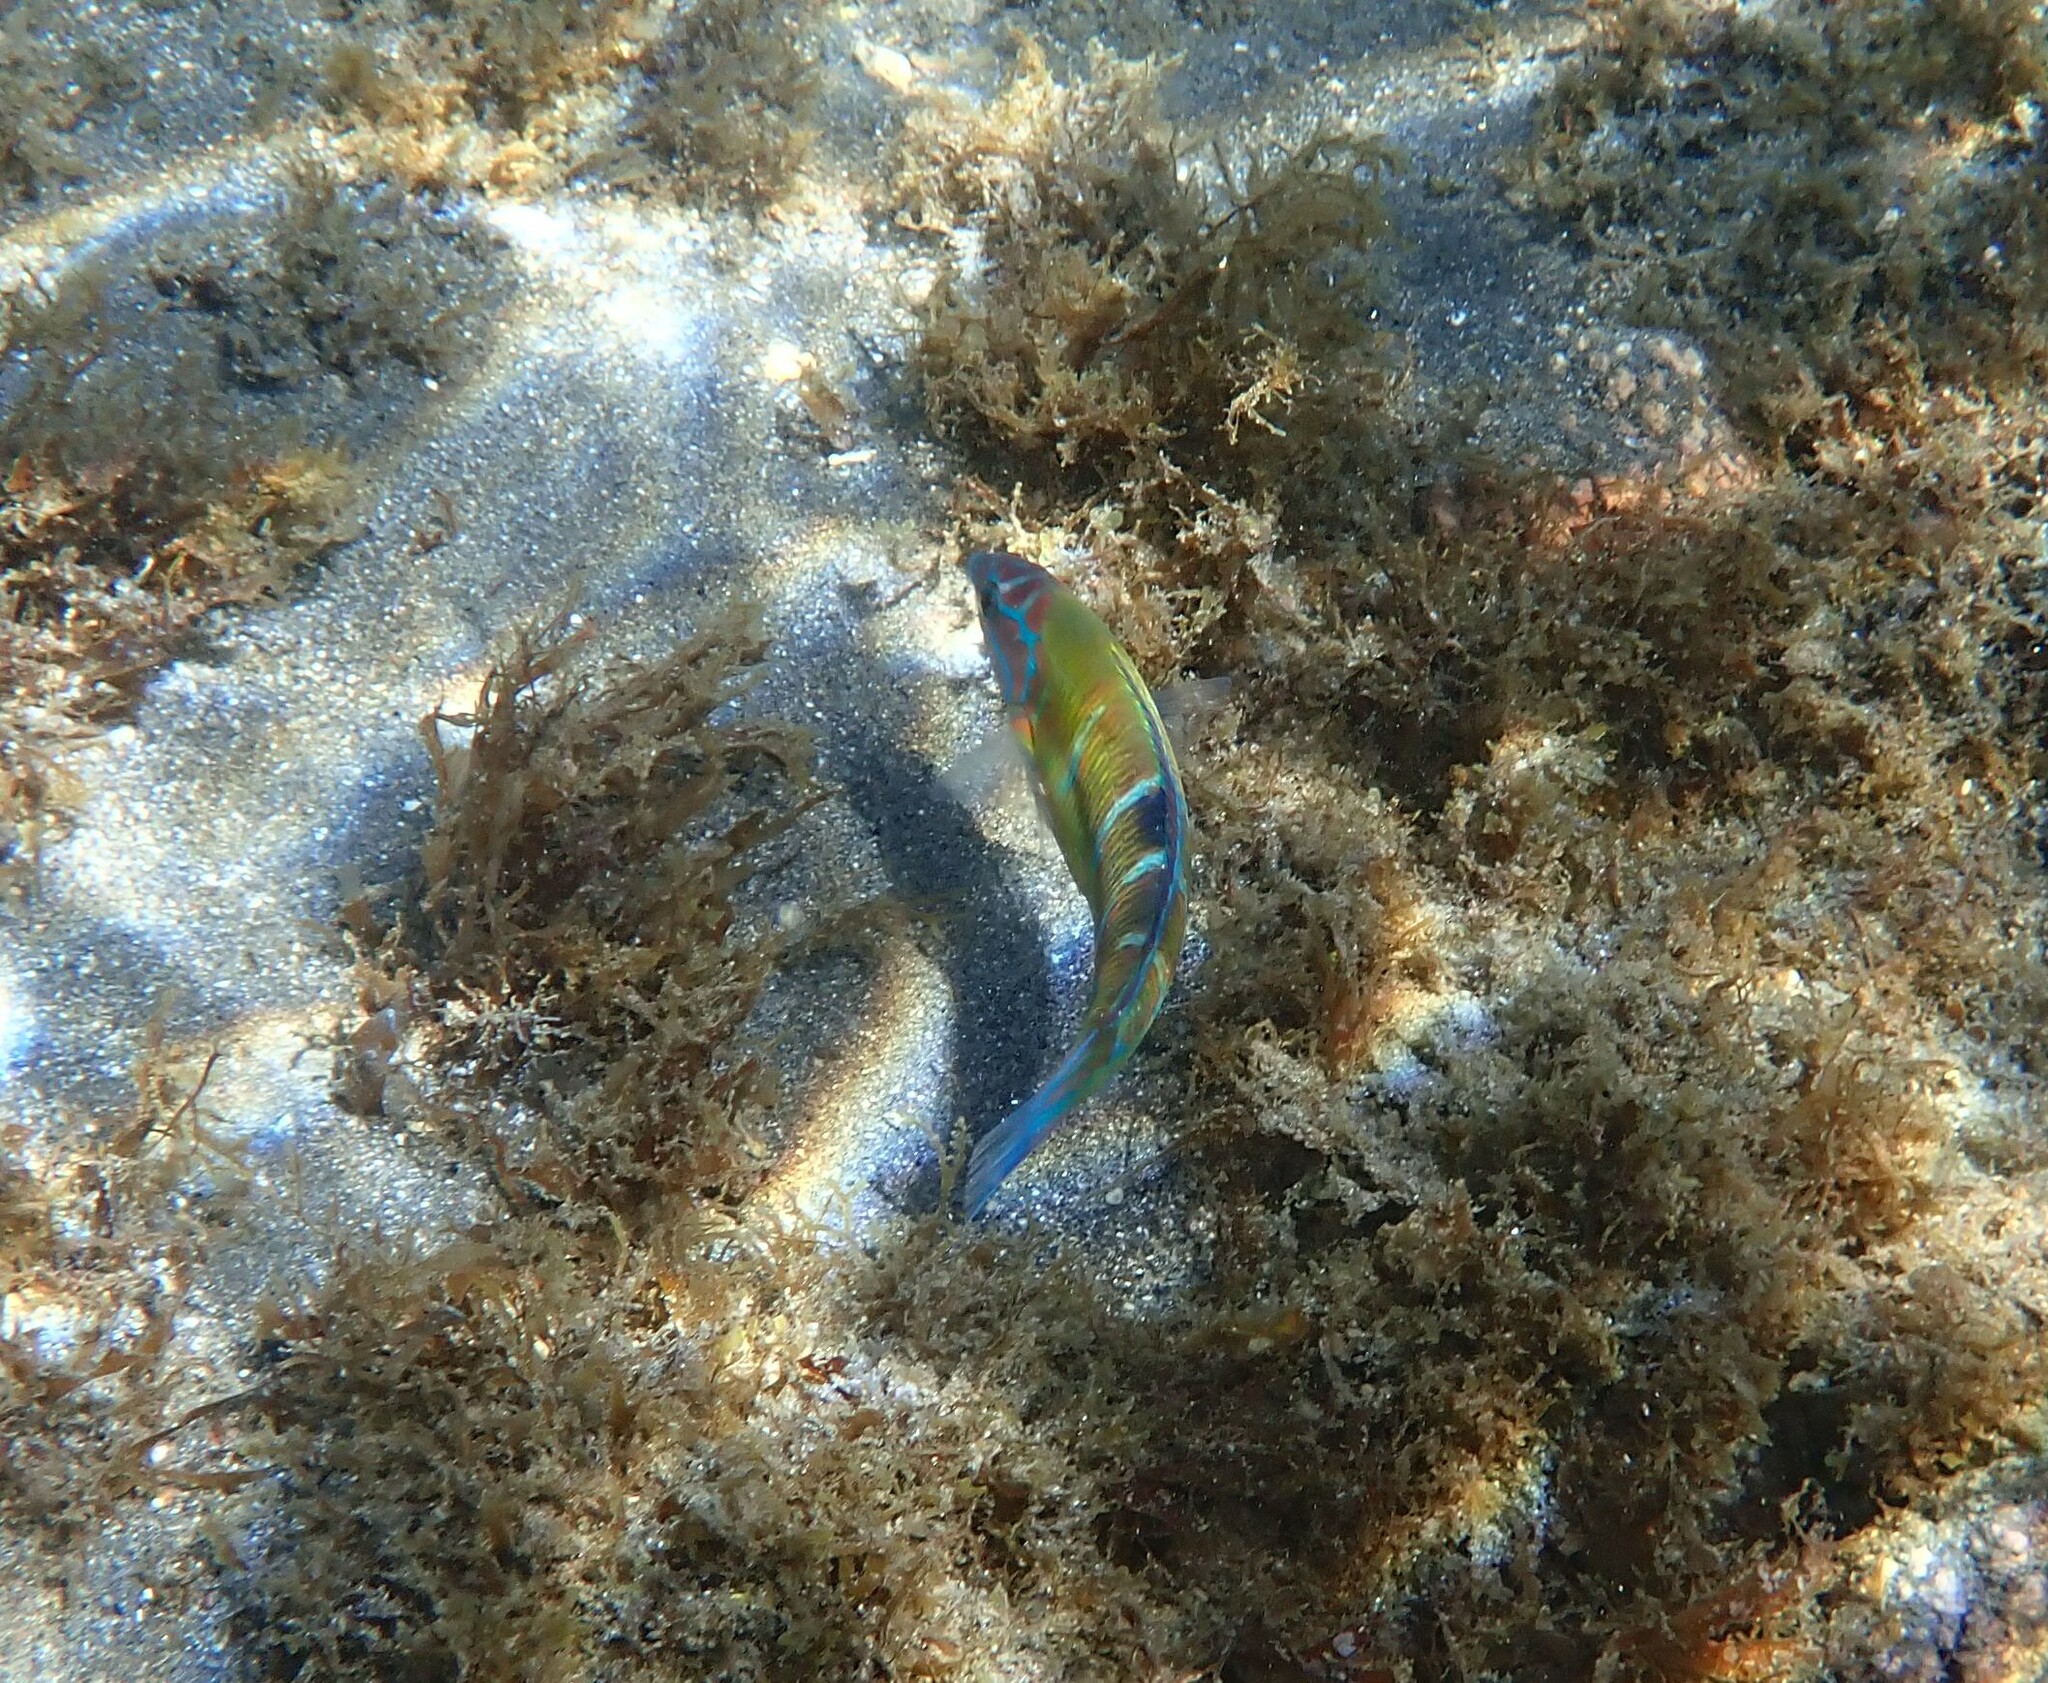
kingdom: Animalia
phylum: Chordata
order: Perciformes
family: Labridae
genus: Thalassoma
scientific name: Thalassoma pavo
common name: Ornate wrasse
